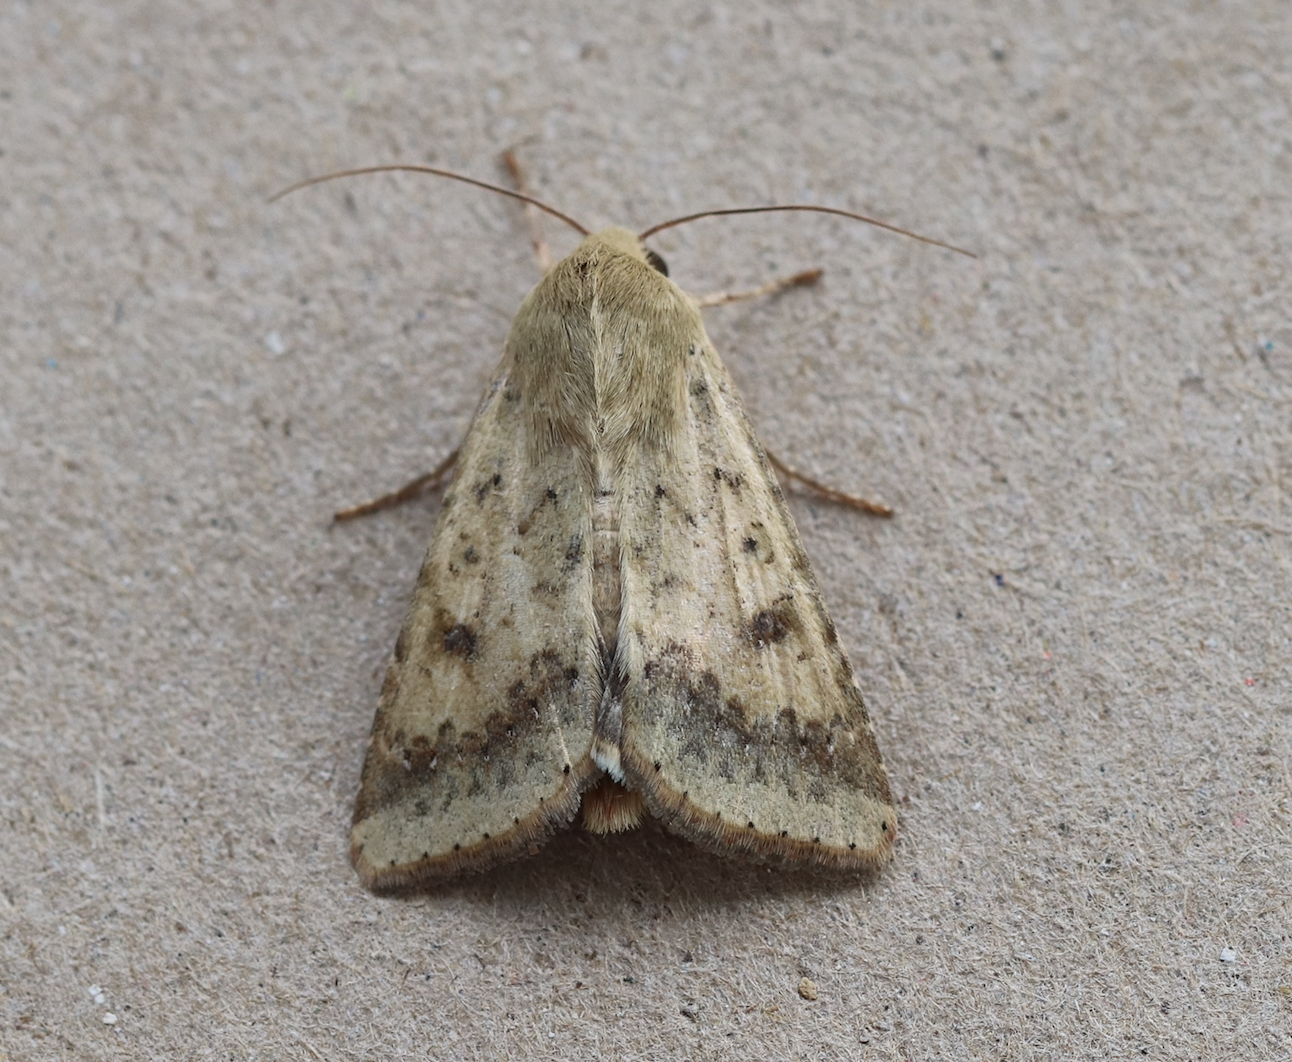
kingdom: Animalia
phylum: Arthropoda
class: Insecta
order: Lepidoptera
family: Noctuidae
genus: Helicoverpa
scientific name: Helicoverpa armigera
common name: Cotton bollworm
